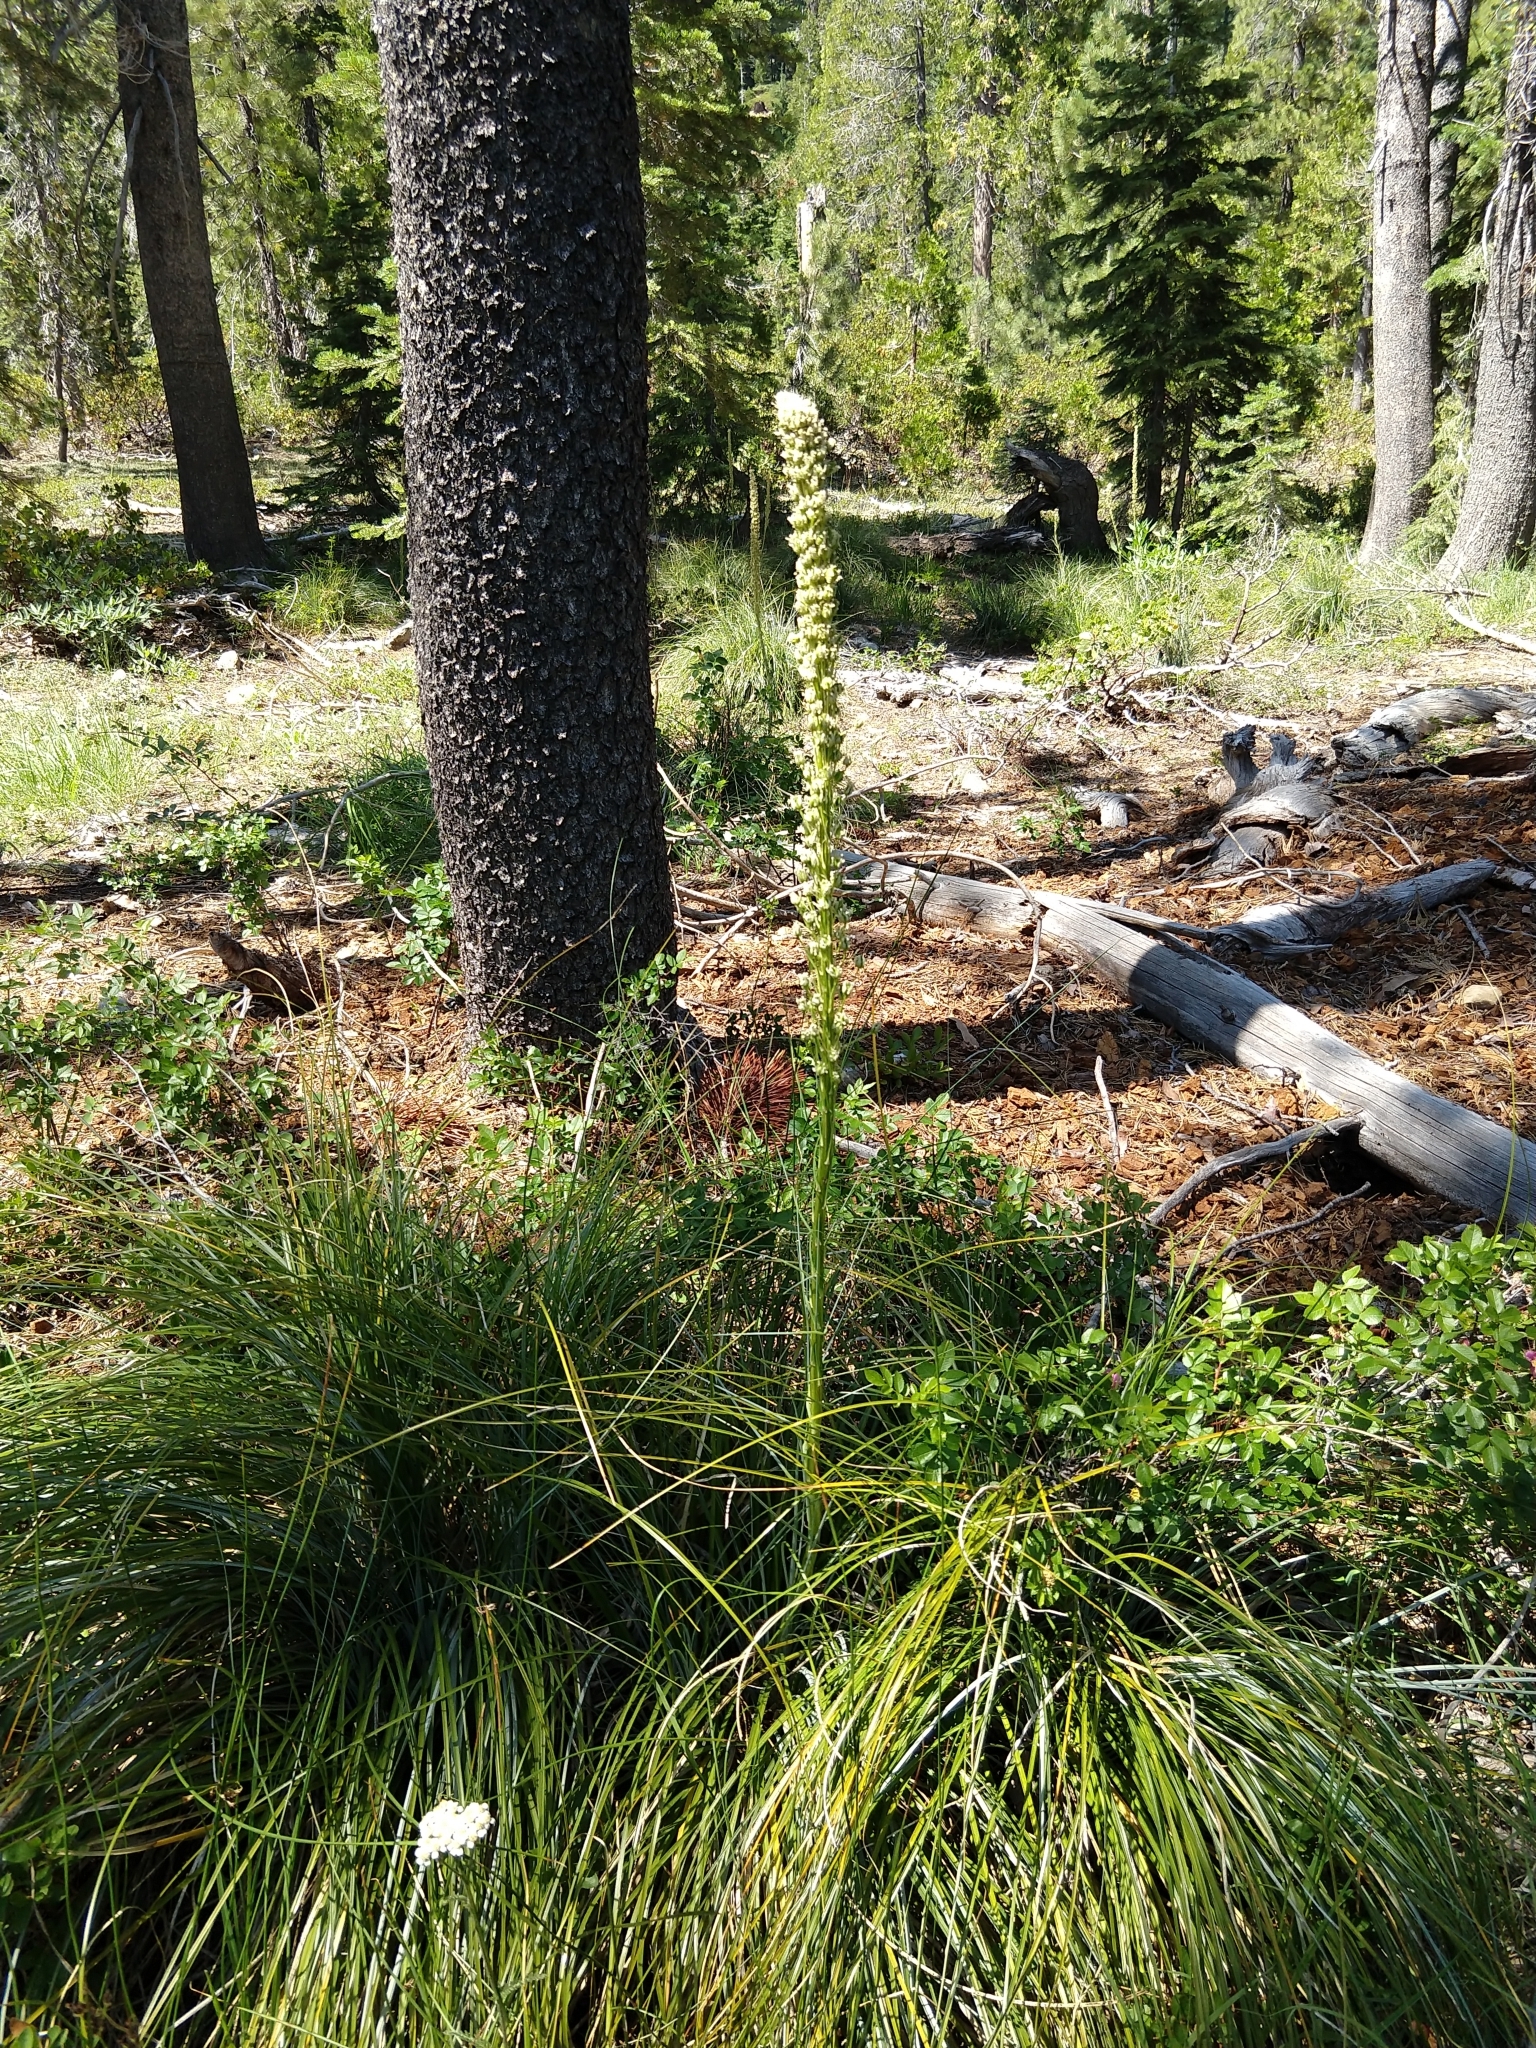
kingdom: Plantae
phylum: Tracheophyta
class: Liliopsida
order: Liliales
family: Melanthiaceae
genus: Xerophyllum
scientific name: Xerophyllum tenax
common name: Bear-grass
